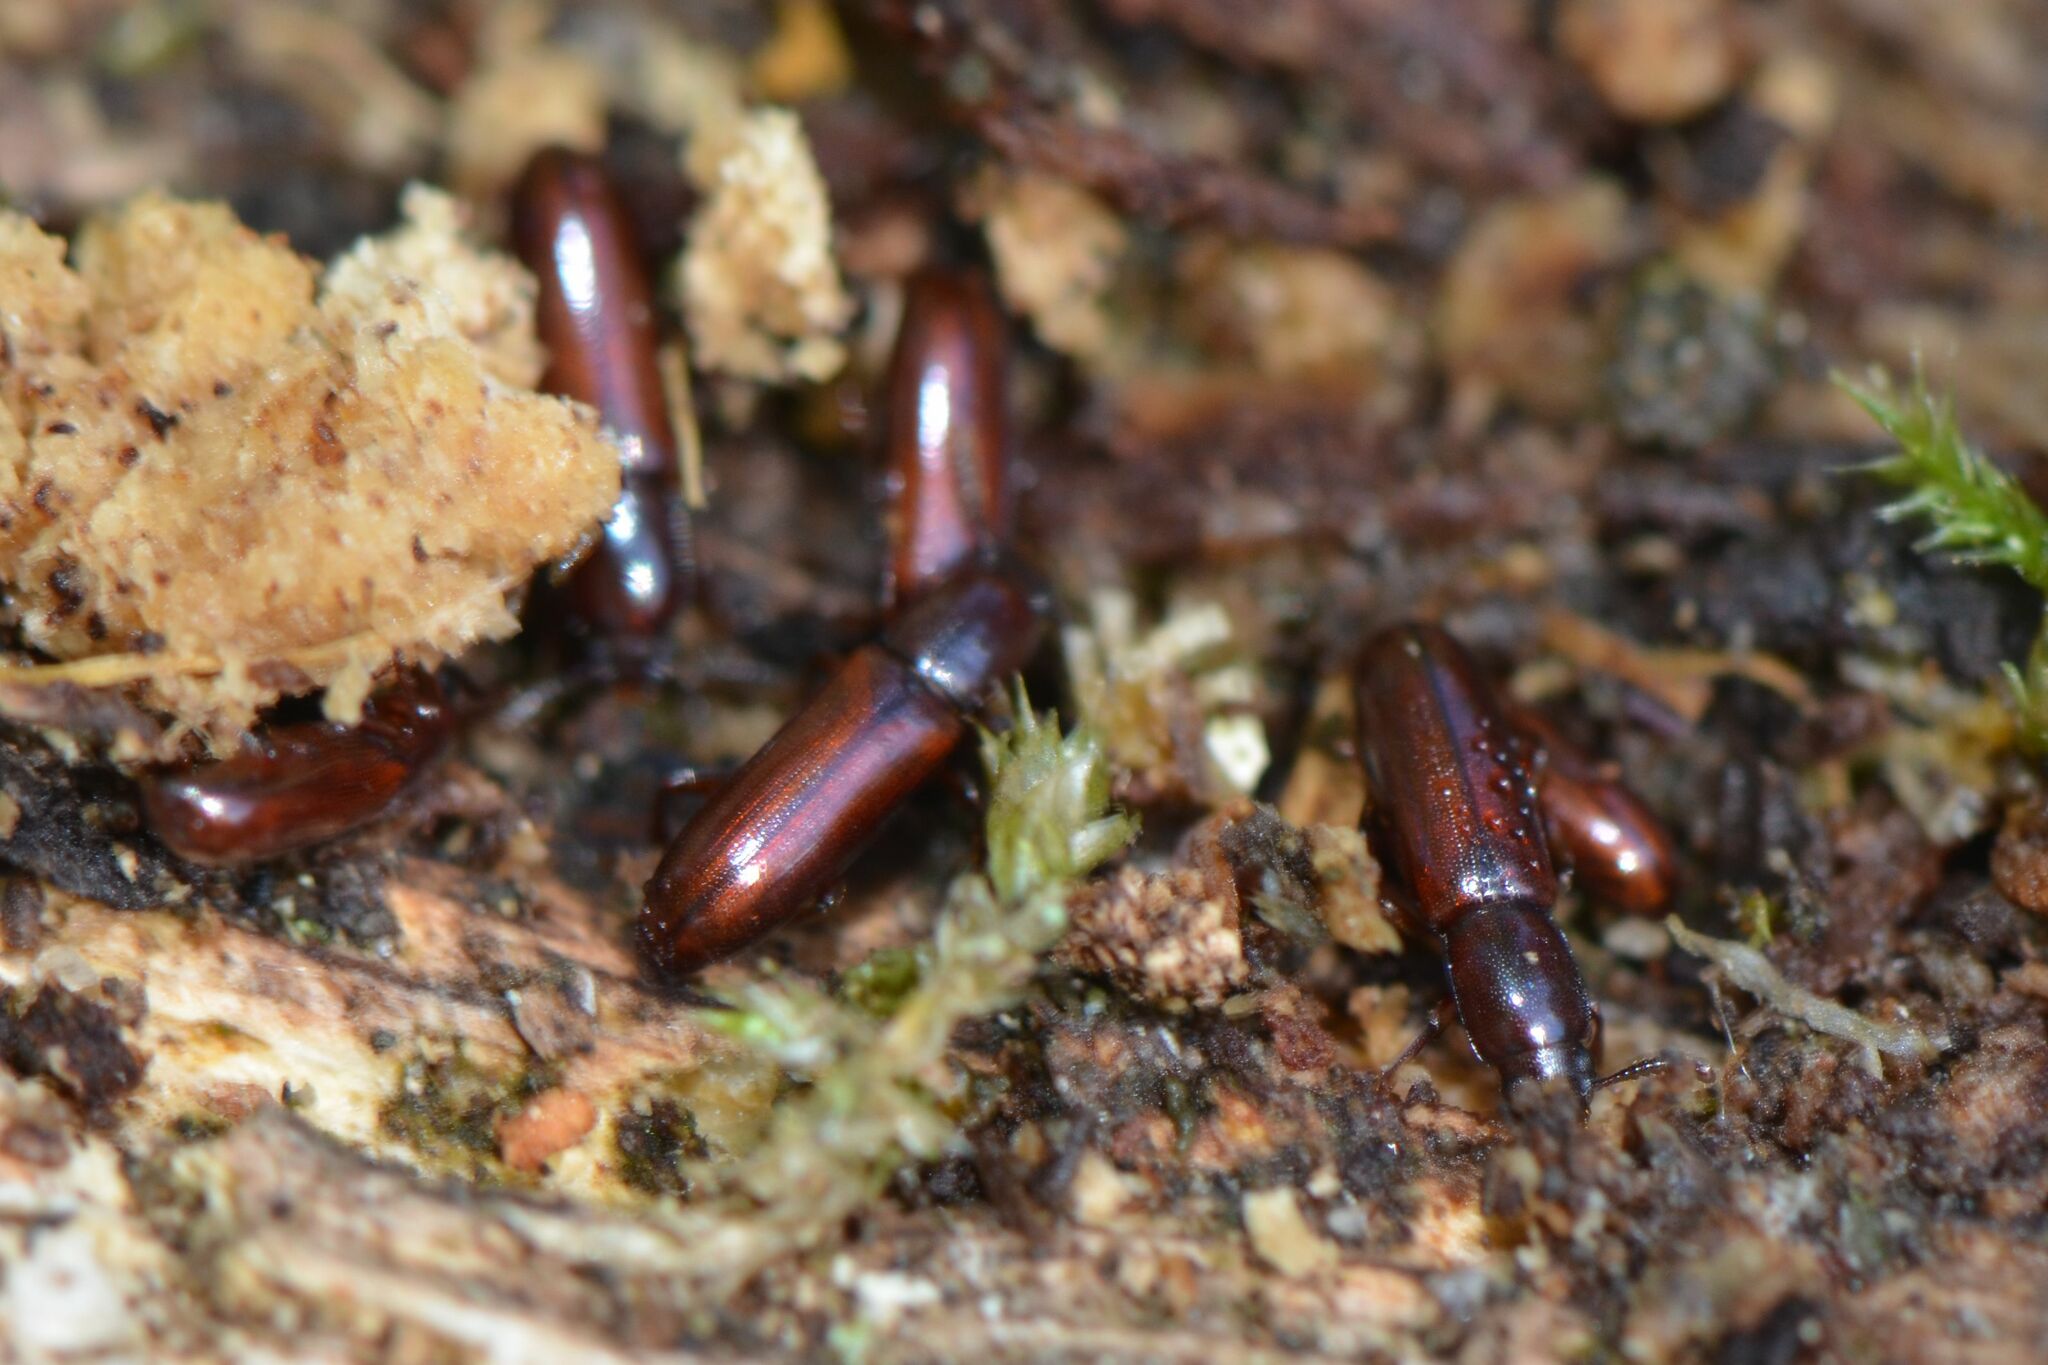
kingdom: Animalia
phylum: Arthropoda
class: Insecta
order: Coleoptera
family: Tenebrionidae
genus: Corticeus
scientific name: Corticeus unicolor
